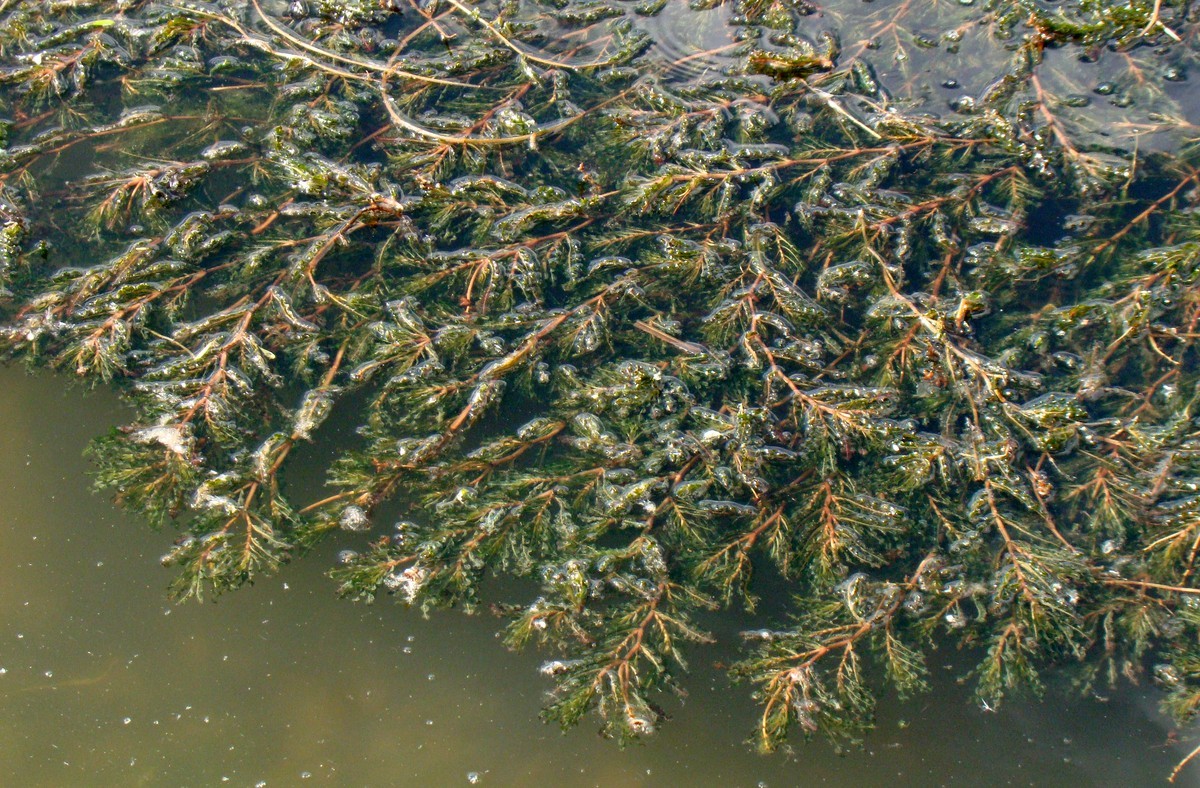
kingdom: Plantae
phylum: Tracheophyta
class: Liliopsida
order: Alismatales
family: Potamogetonaceae
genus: Potamogeton
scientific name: Potamogeton crispus
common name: Curled pondweed
